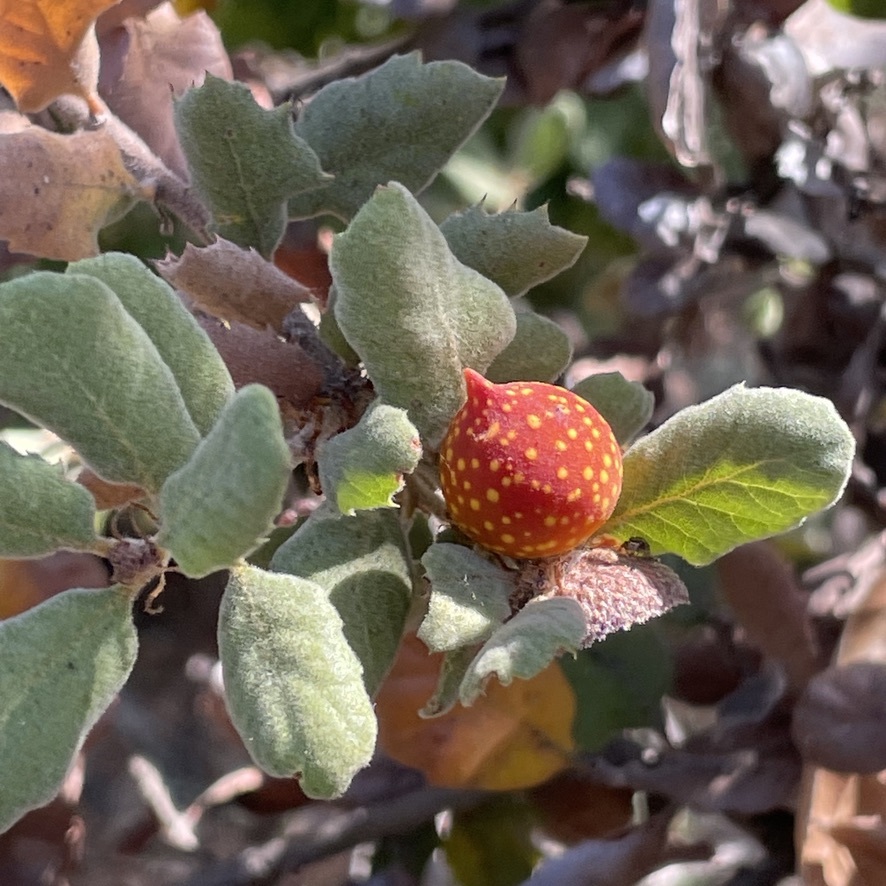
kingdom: Plantae
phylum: Tracheophyta
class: Magnoliopsida
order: Fagales
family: Fagaceae
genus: Quercus
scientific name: Quercus durata
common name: Leather oak
